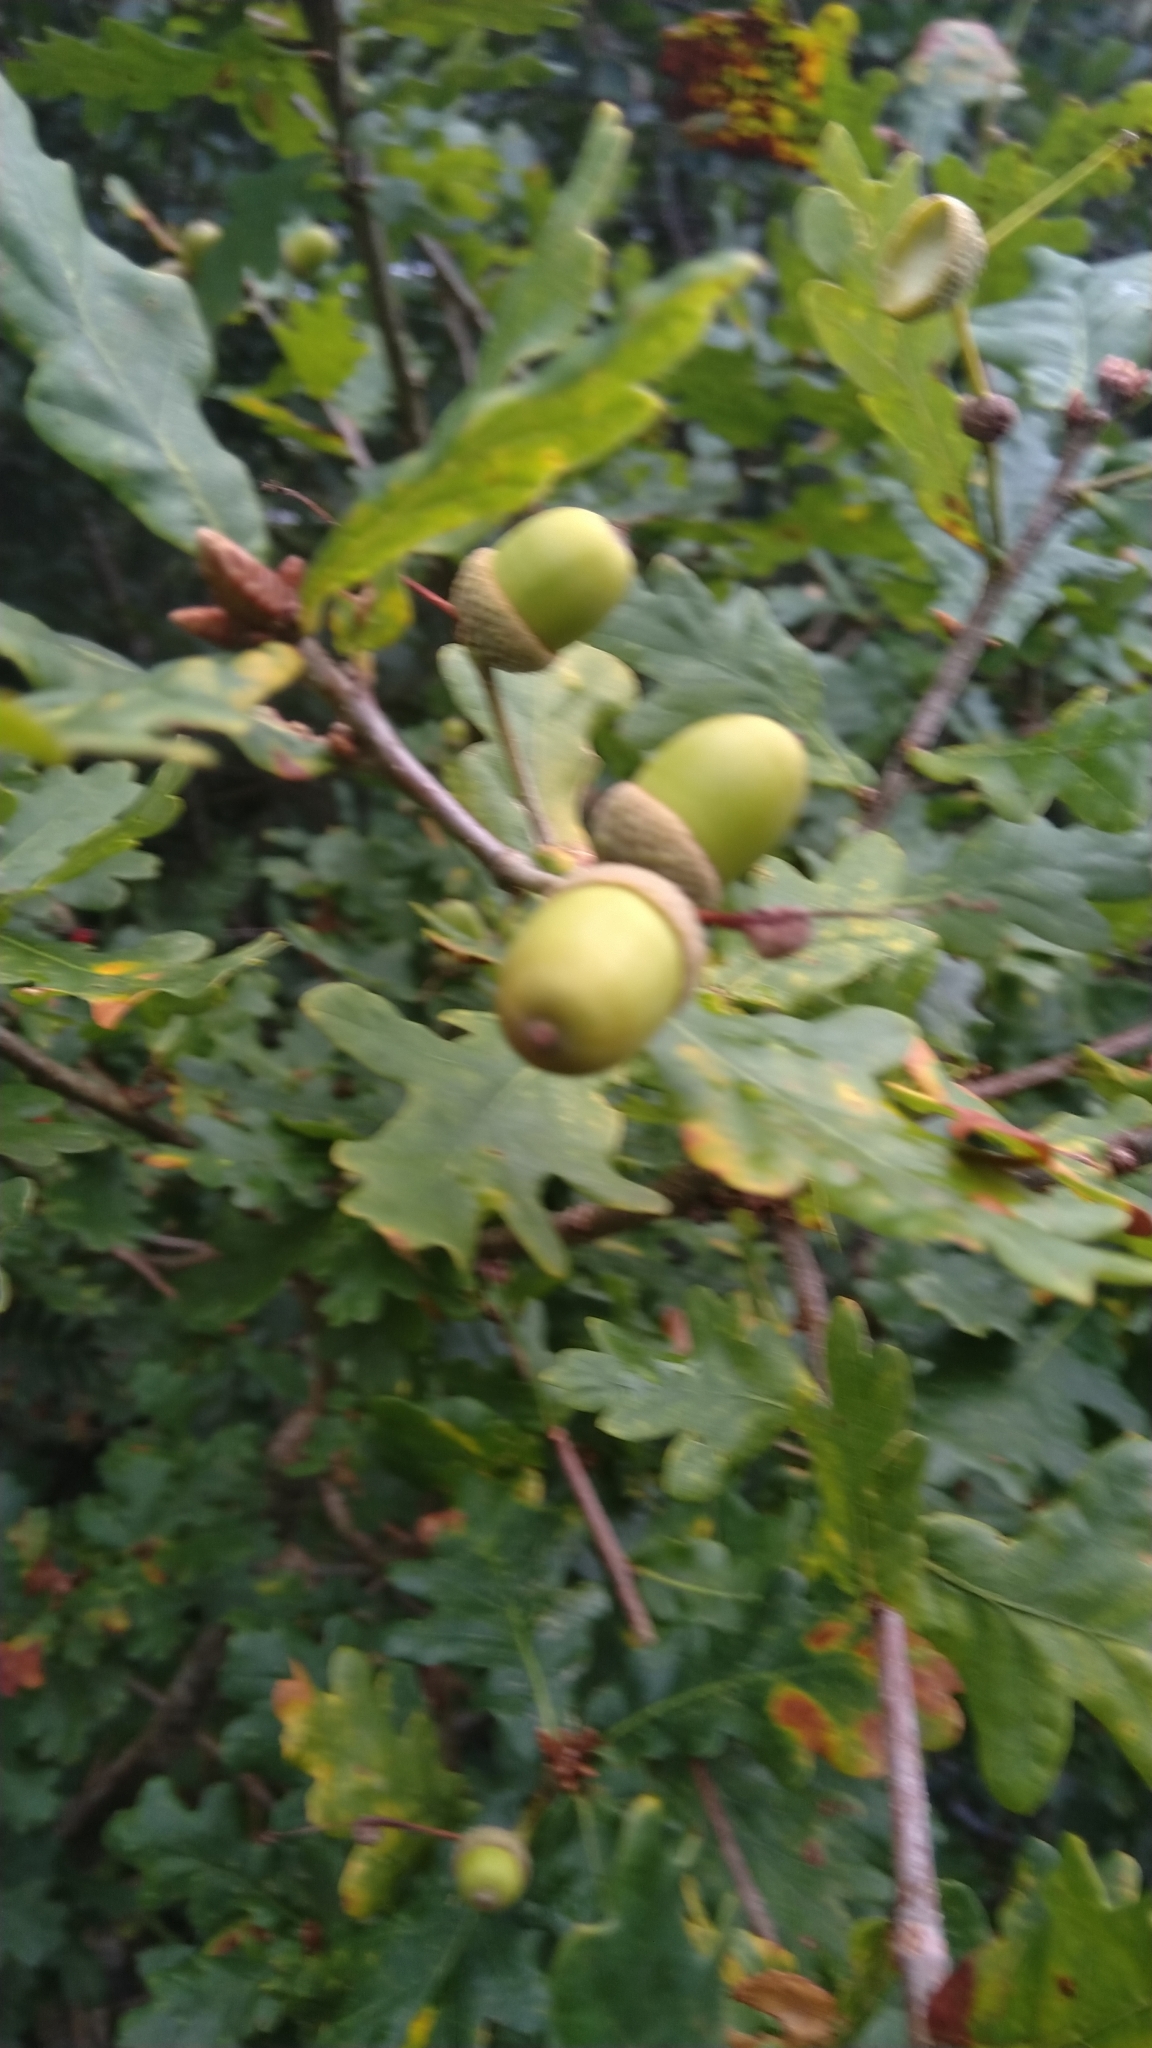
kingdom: Plantae
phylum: Tracheophyta
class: Magnoliopsida
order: Fagales
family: Fagaceae
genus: Quercus
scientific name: Quercus robur
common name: Pedunculate oak
